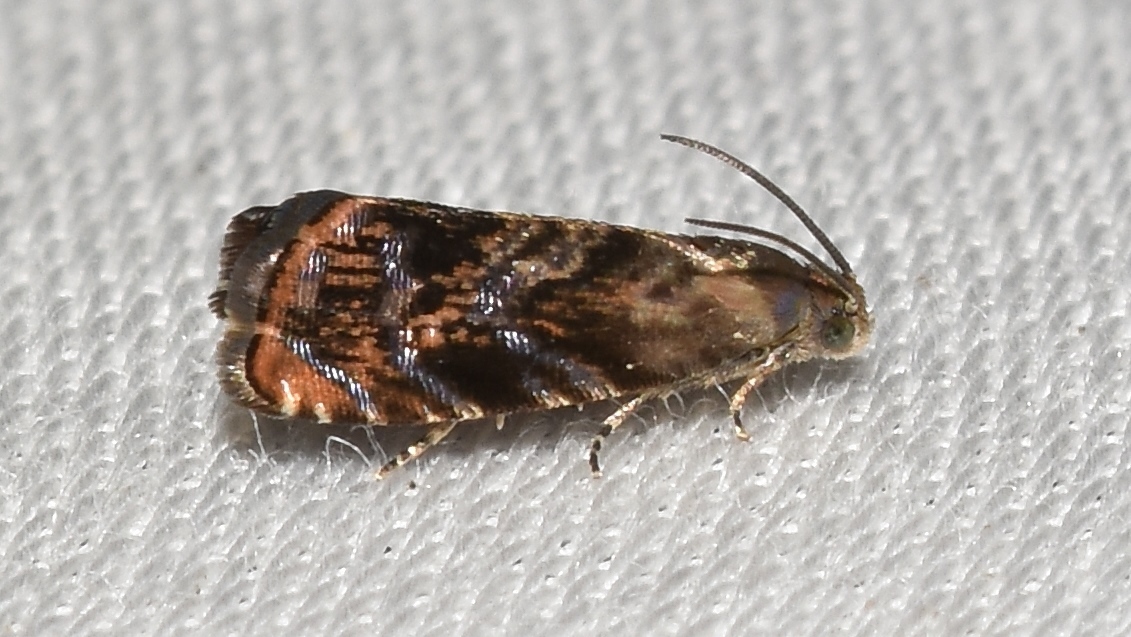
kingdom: Animalia
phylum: Arthropoda
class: Insecta
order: Lepidoptera
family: Noctuidae
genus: Aspila
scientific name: Aspila
